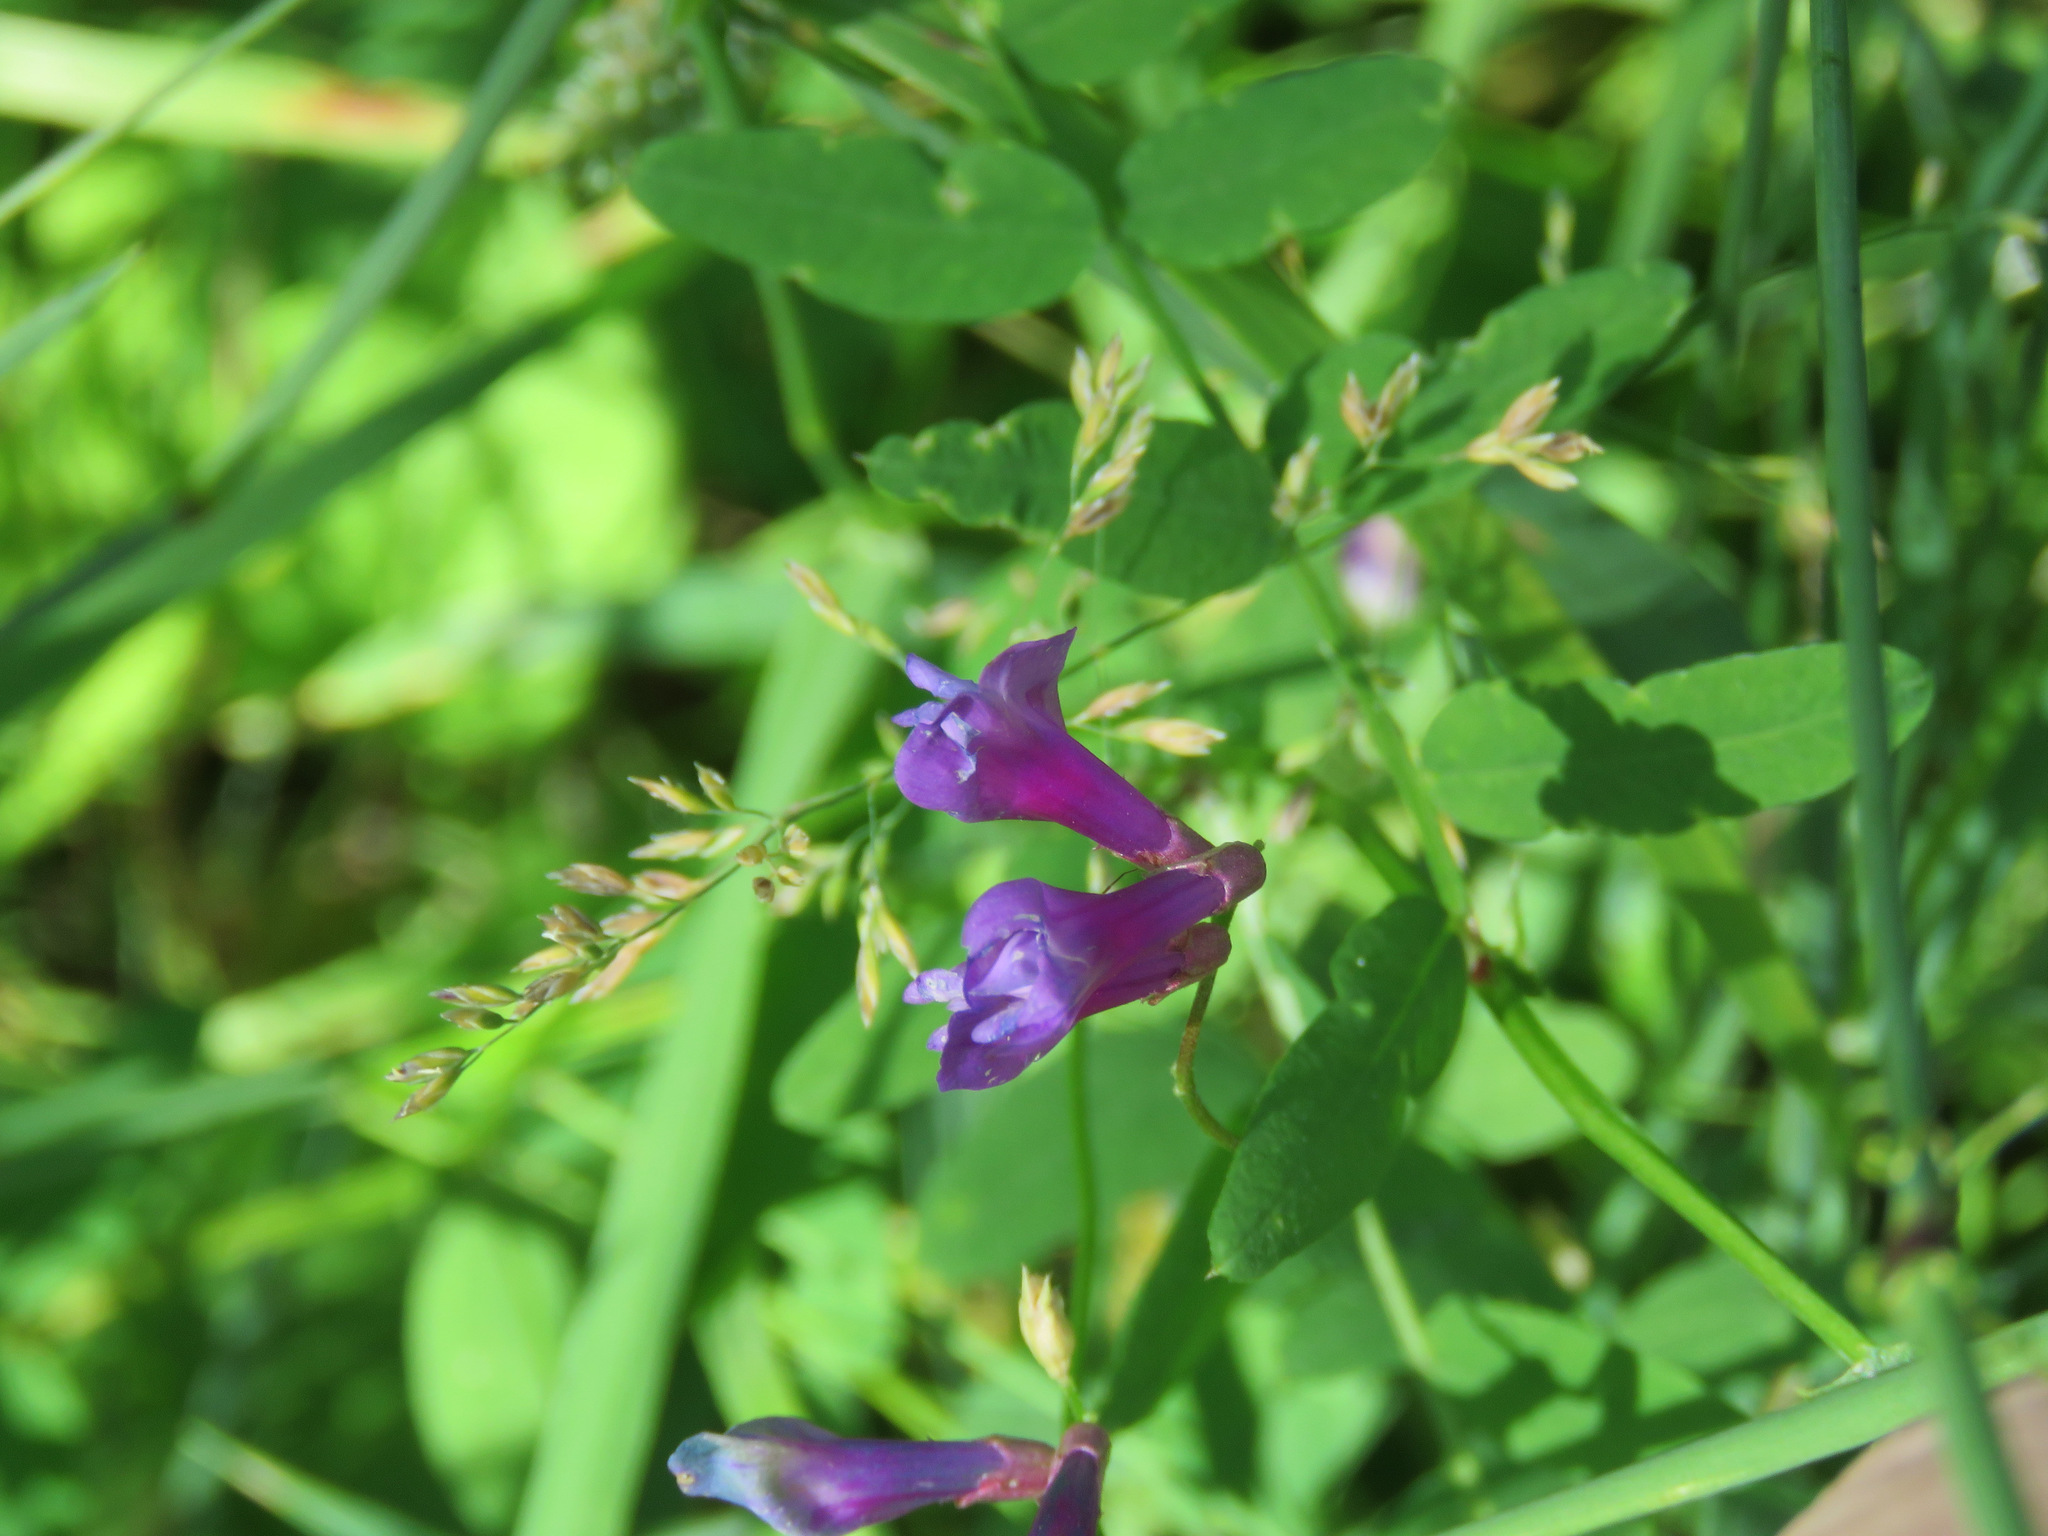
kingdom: Plantae
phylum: Tracheophyta
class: Magnoliopsida
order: Fabales
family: Fabaceae
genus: Vicia
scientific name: Vicia americana
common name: American vetch
